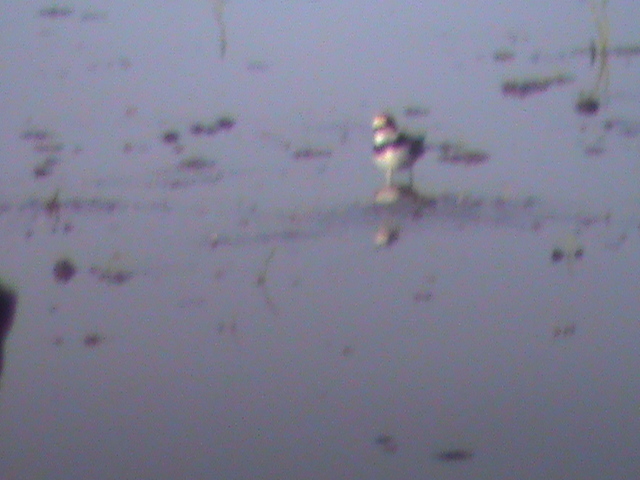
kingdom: Animalia
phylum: Chordata
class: Aves
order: Charadriiformes
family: Charadriidae
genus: Charadrius
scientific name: Charadrius dubius
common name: Little ringed plover
